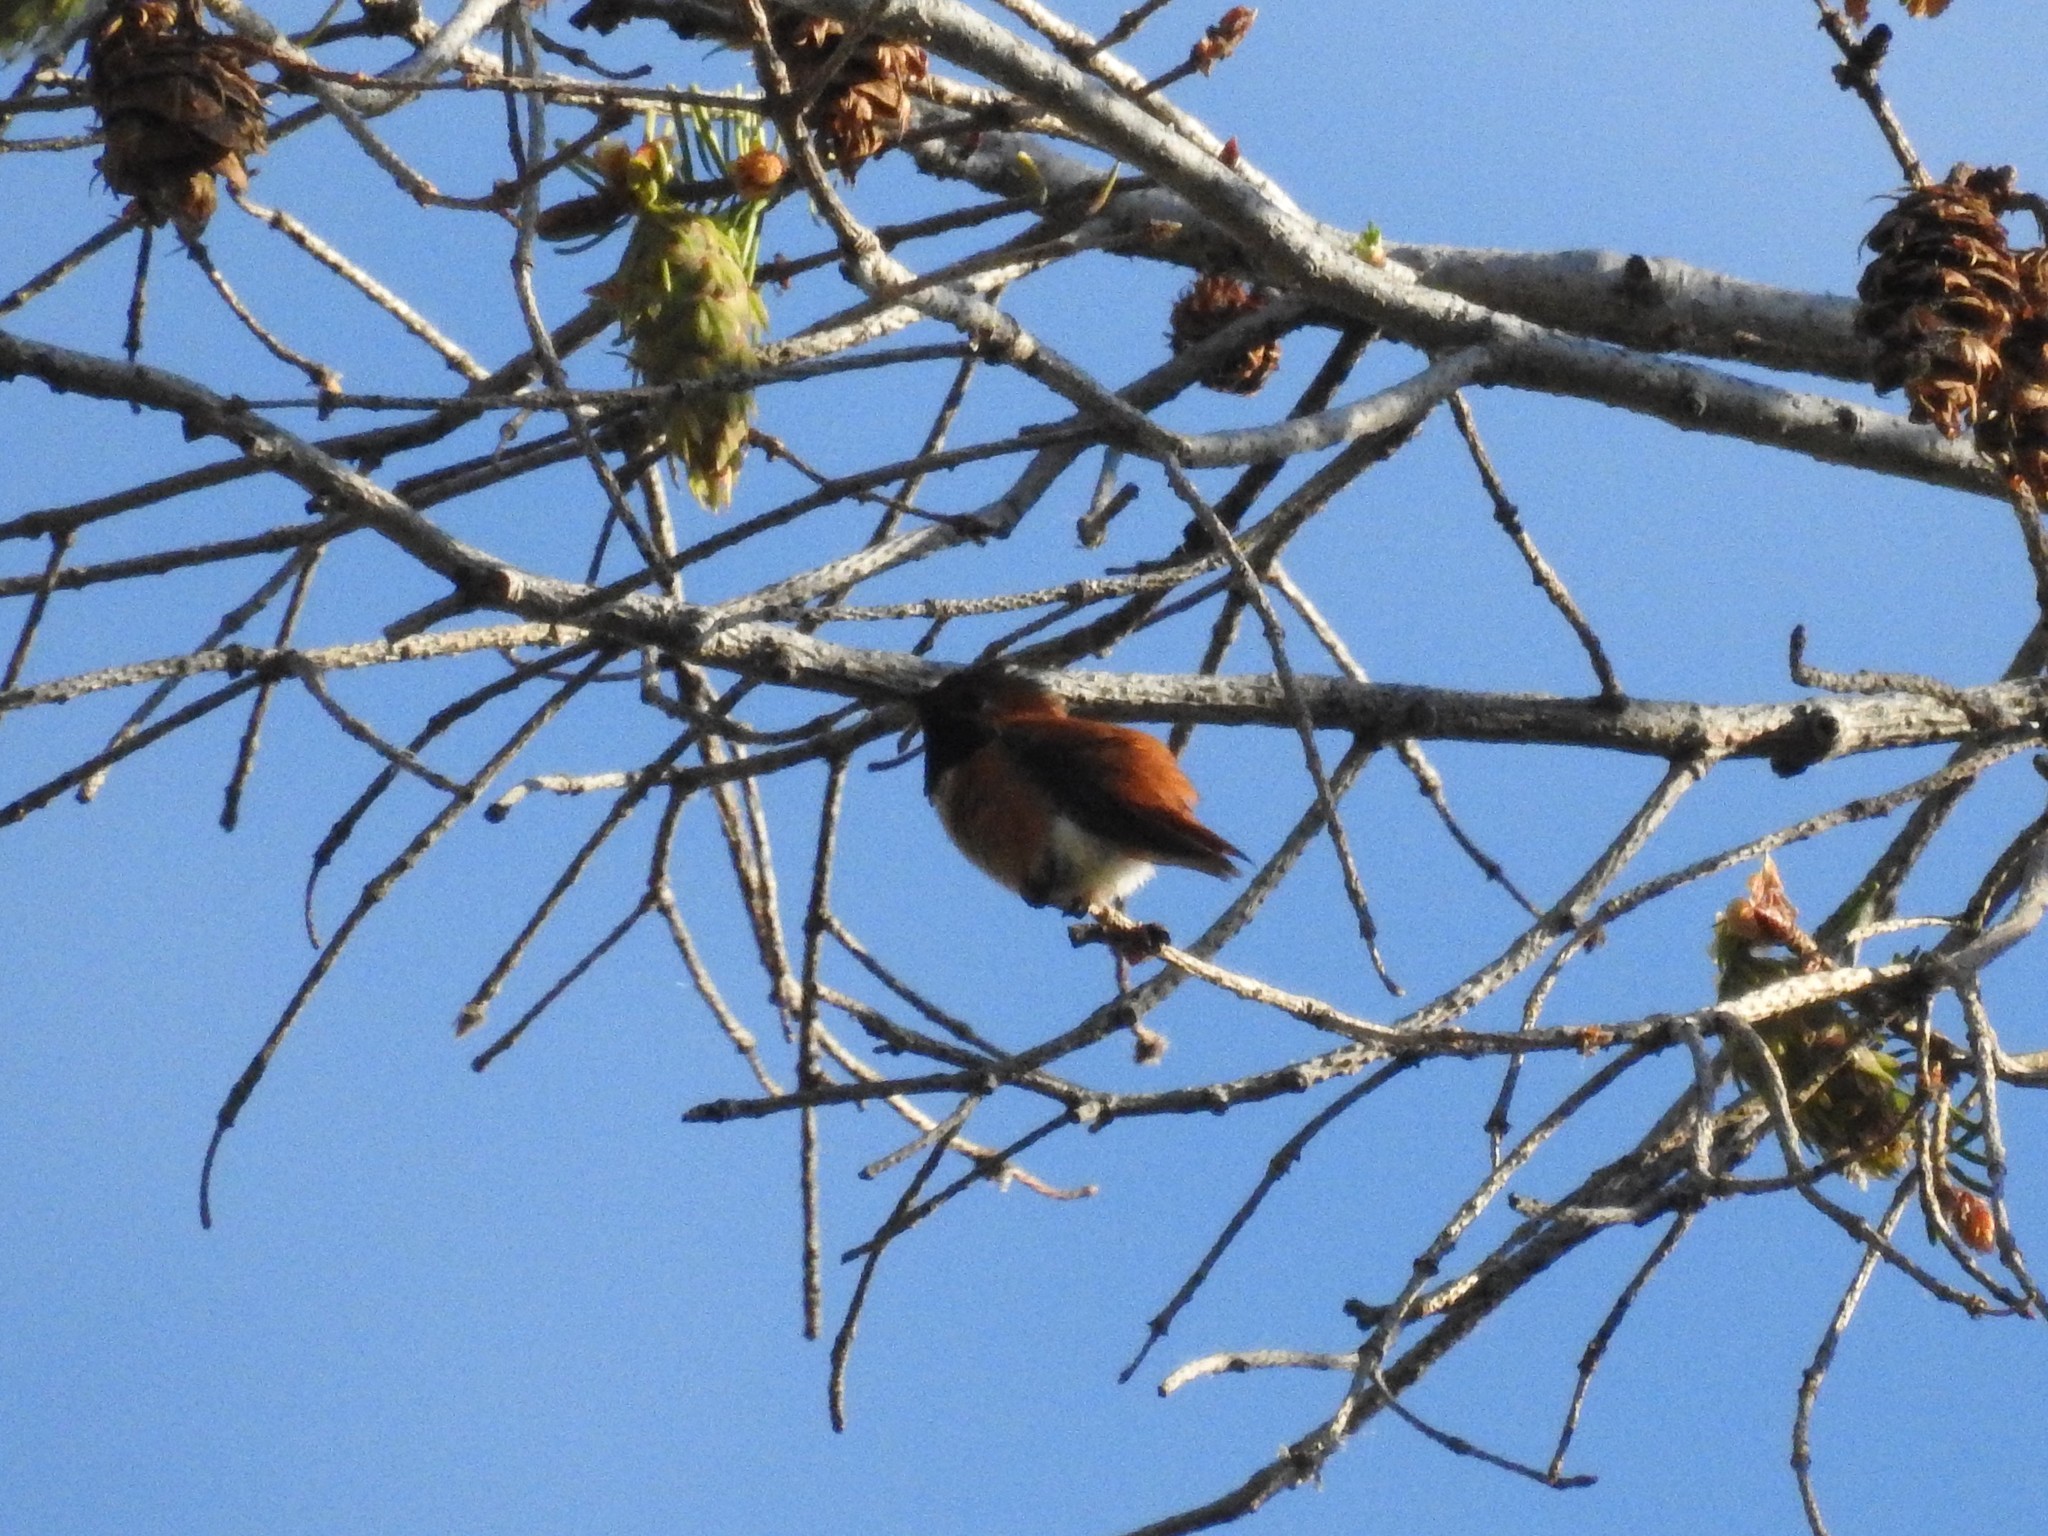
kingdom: Animalia
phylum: Chordata
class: Aves
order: Apodiformes
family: Trochilidae
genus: Selasphorus
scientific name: Selasphorus rufus
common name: Rufous hummingbird
